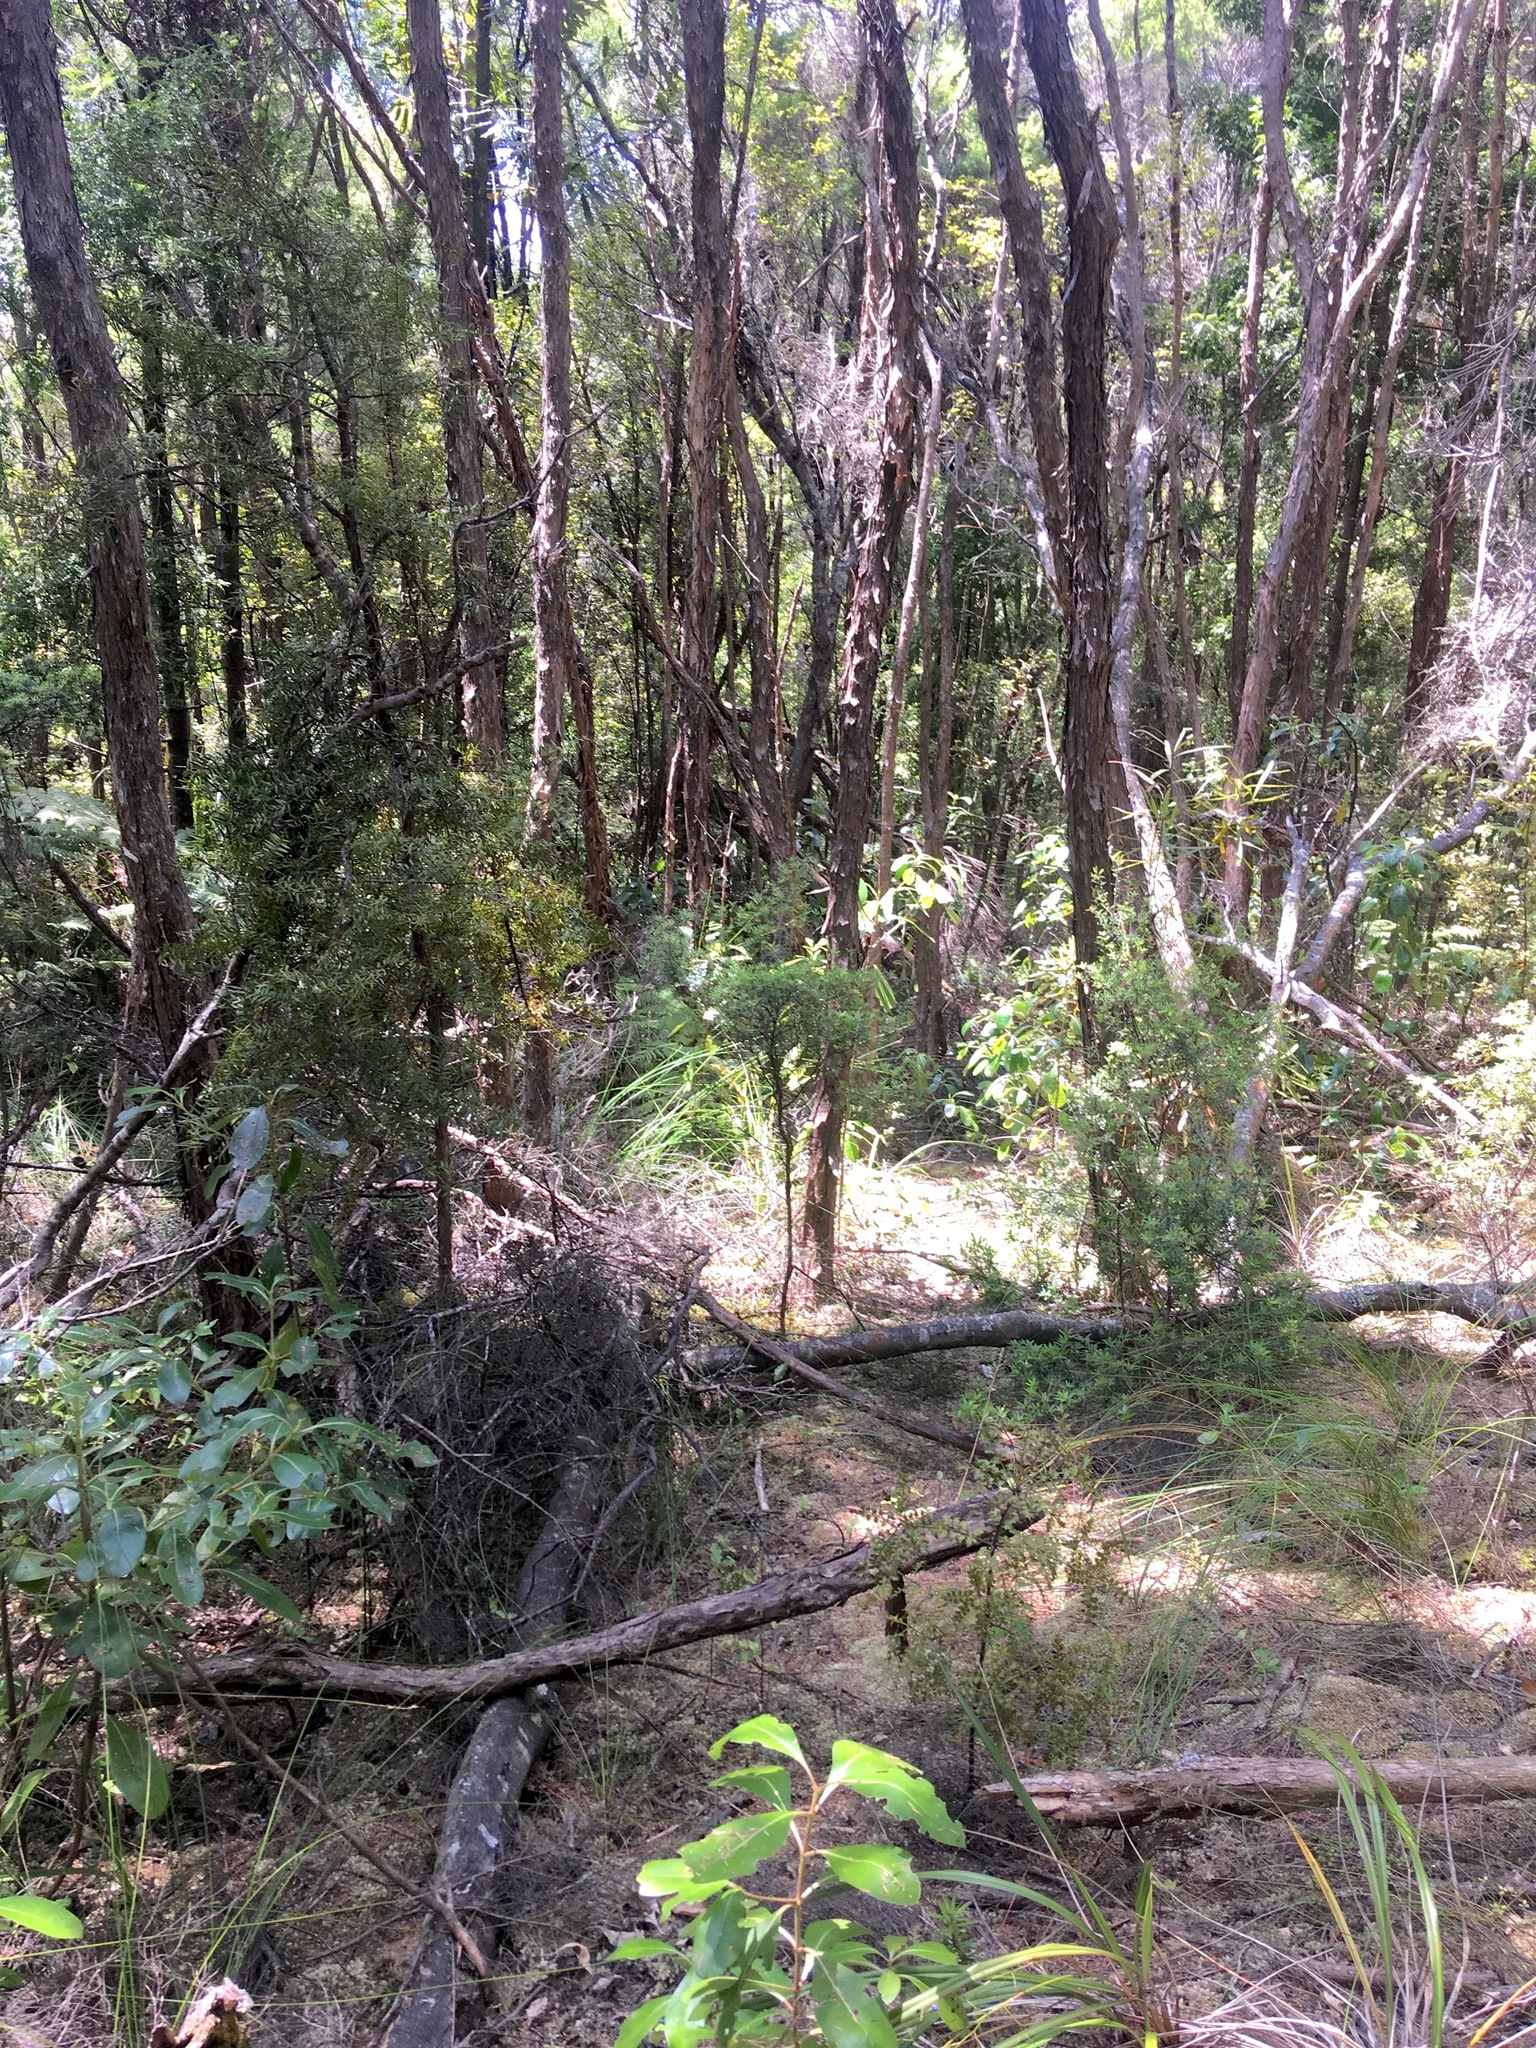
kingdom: Plantae
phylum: Tracheophyta
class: Pinopsida
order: Pinales
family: Podocarpaceae
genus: Podocarpus
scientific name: Podocarpus totara
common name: Totara
